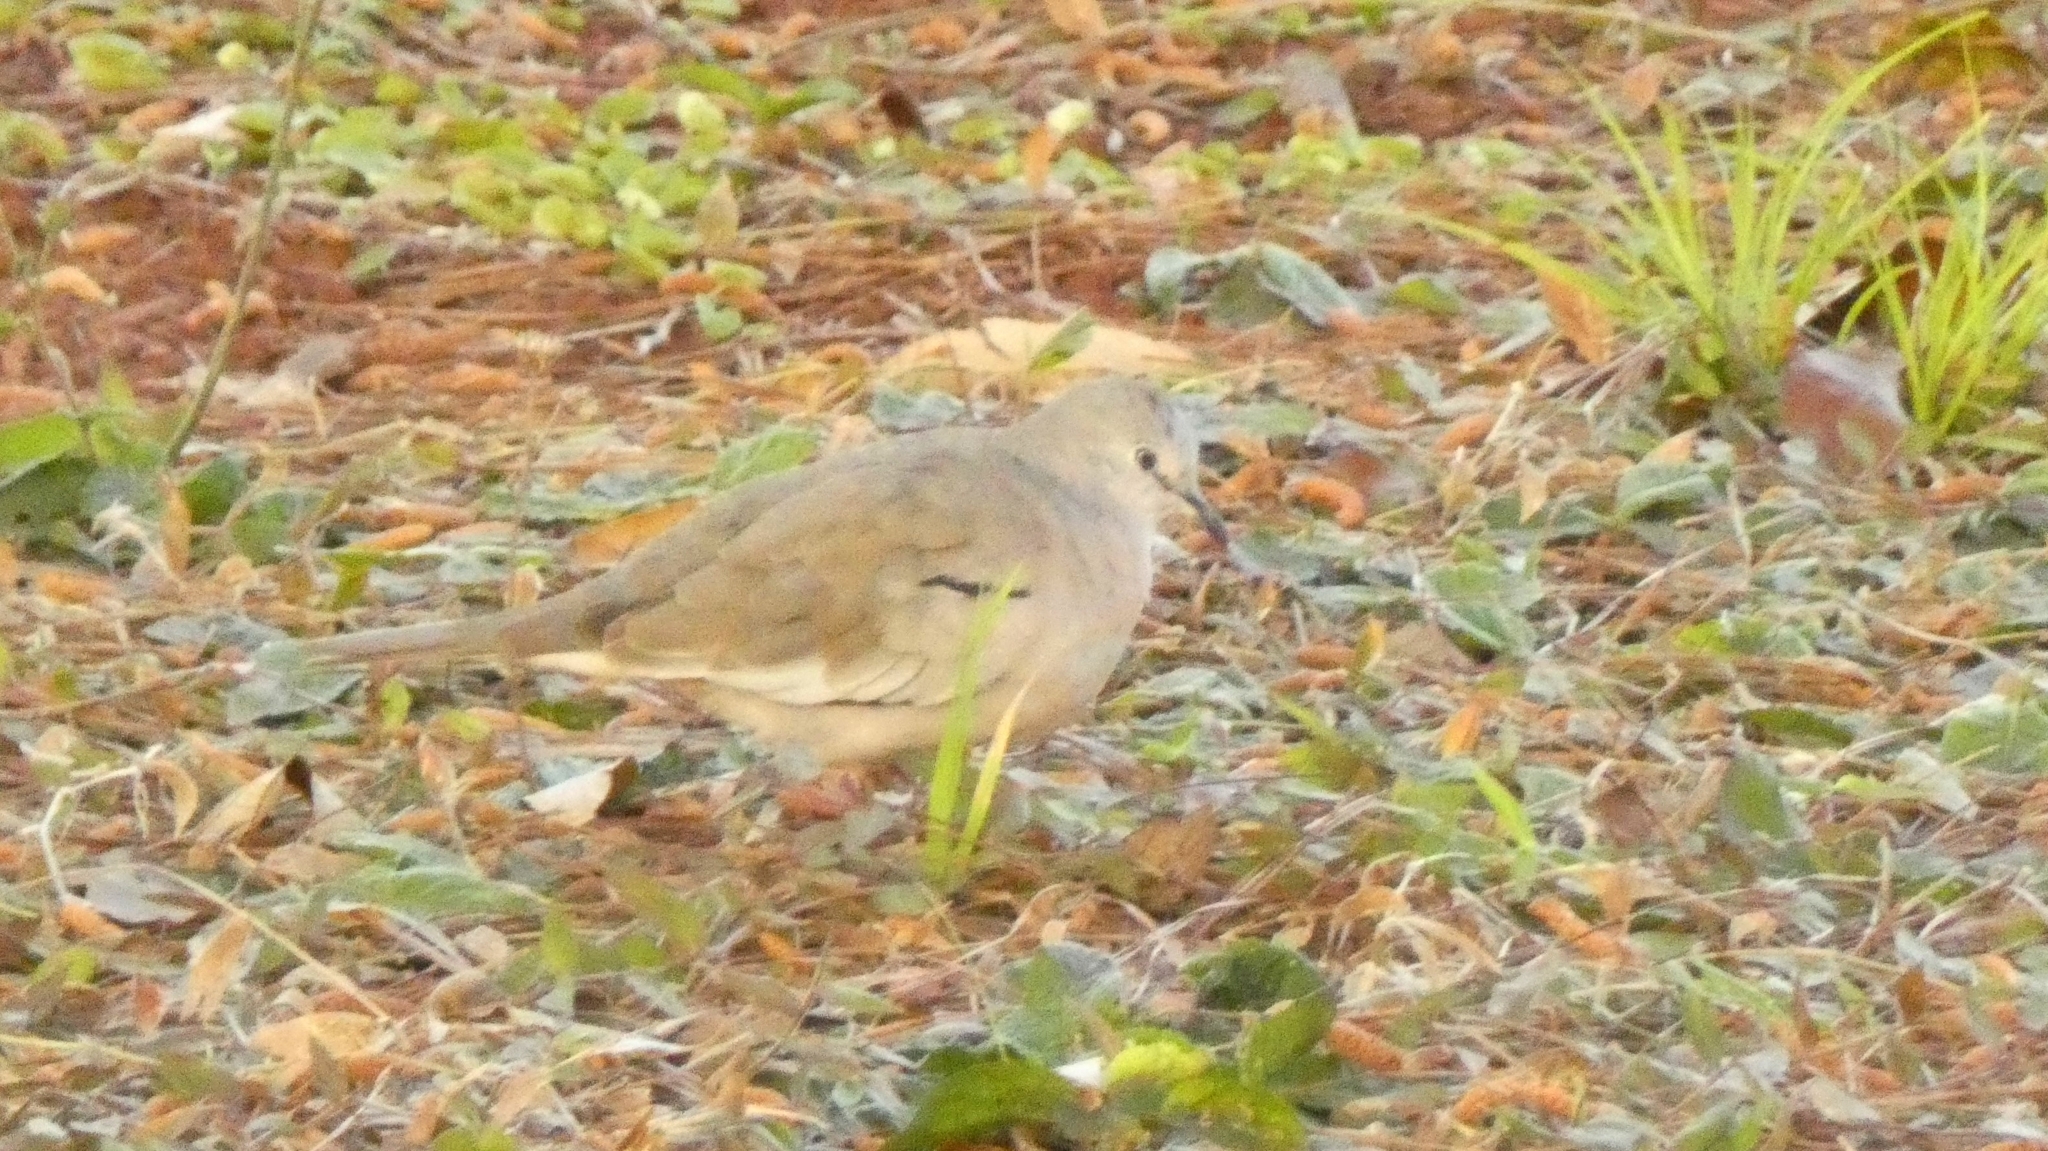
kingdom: Animalia
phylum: Chordata
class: Aves
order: Columbiformes
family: Columbidae
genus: Columbina
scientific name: Columbina picui
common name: Picui ground dove
